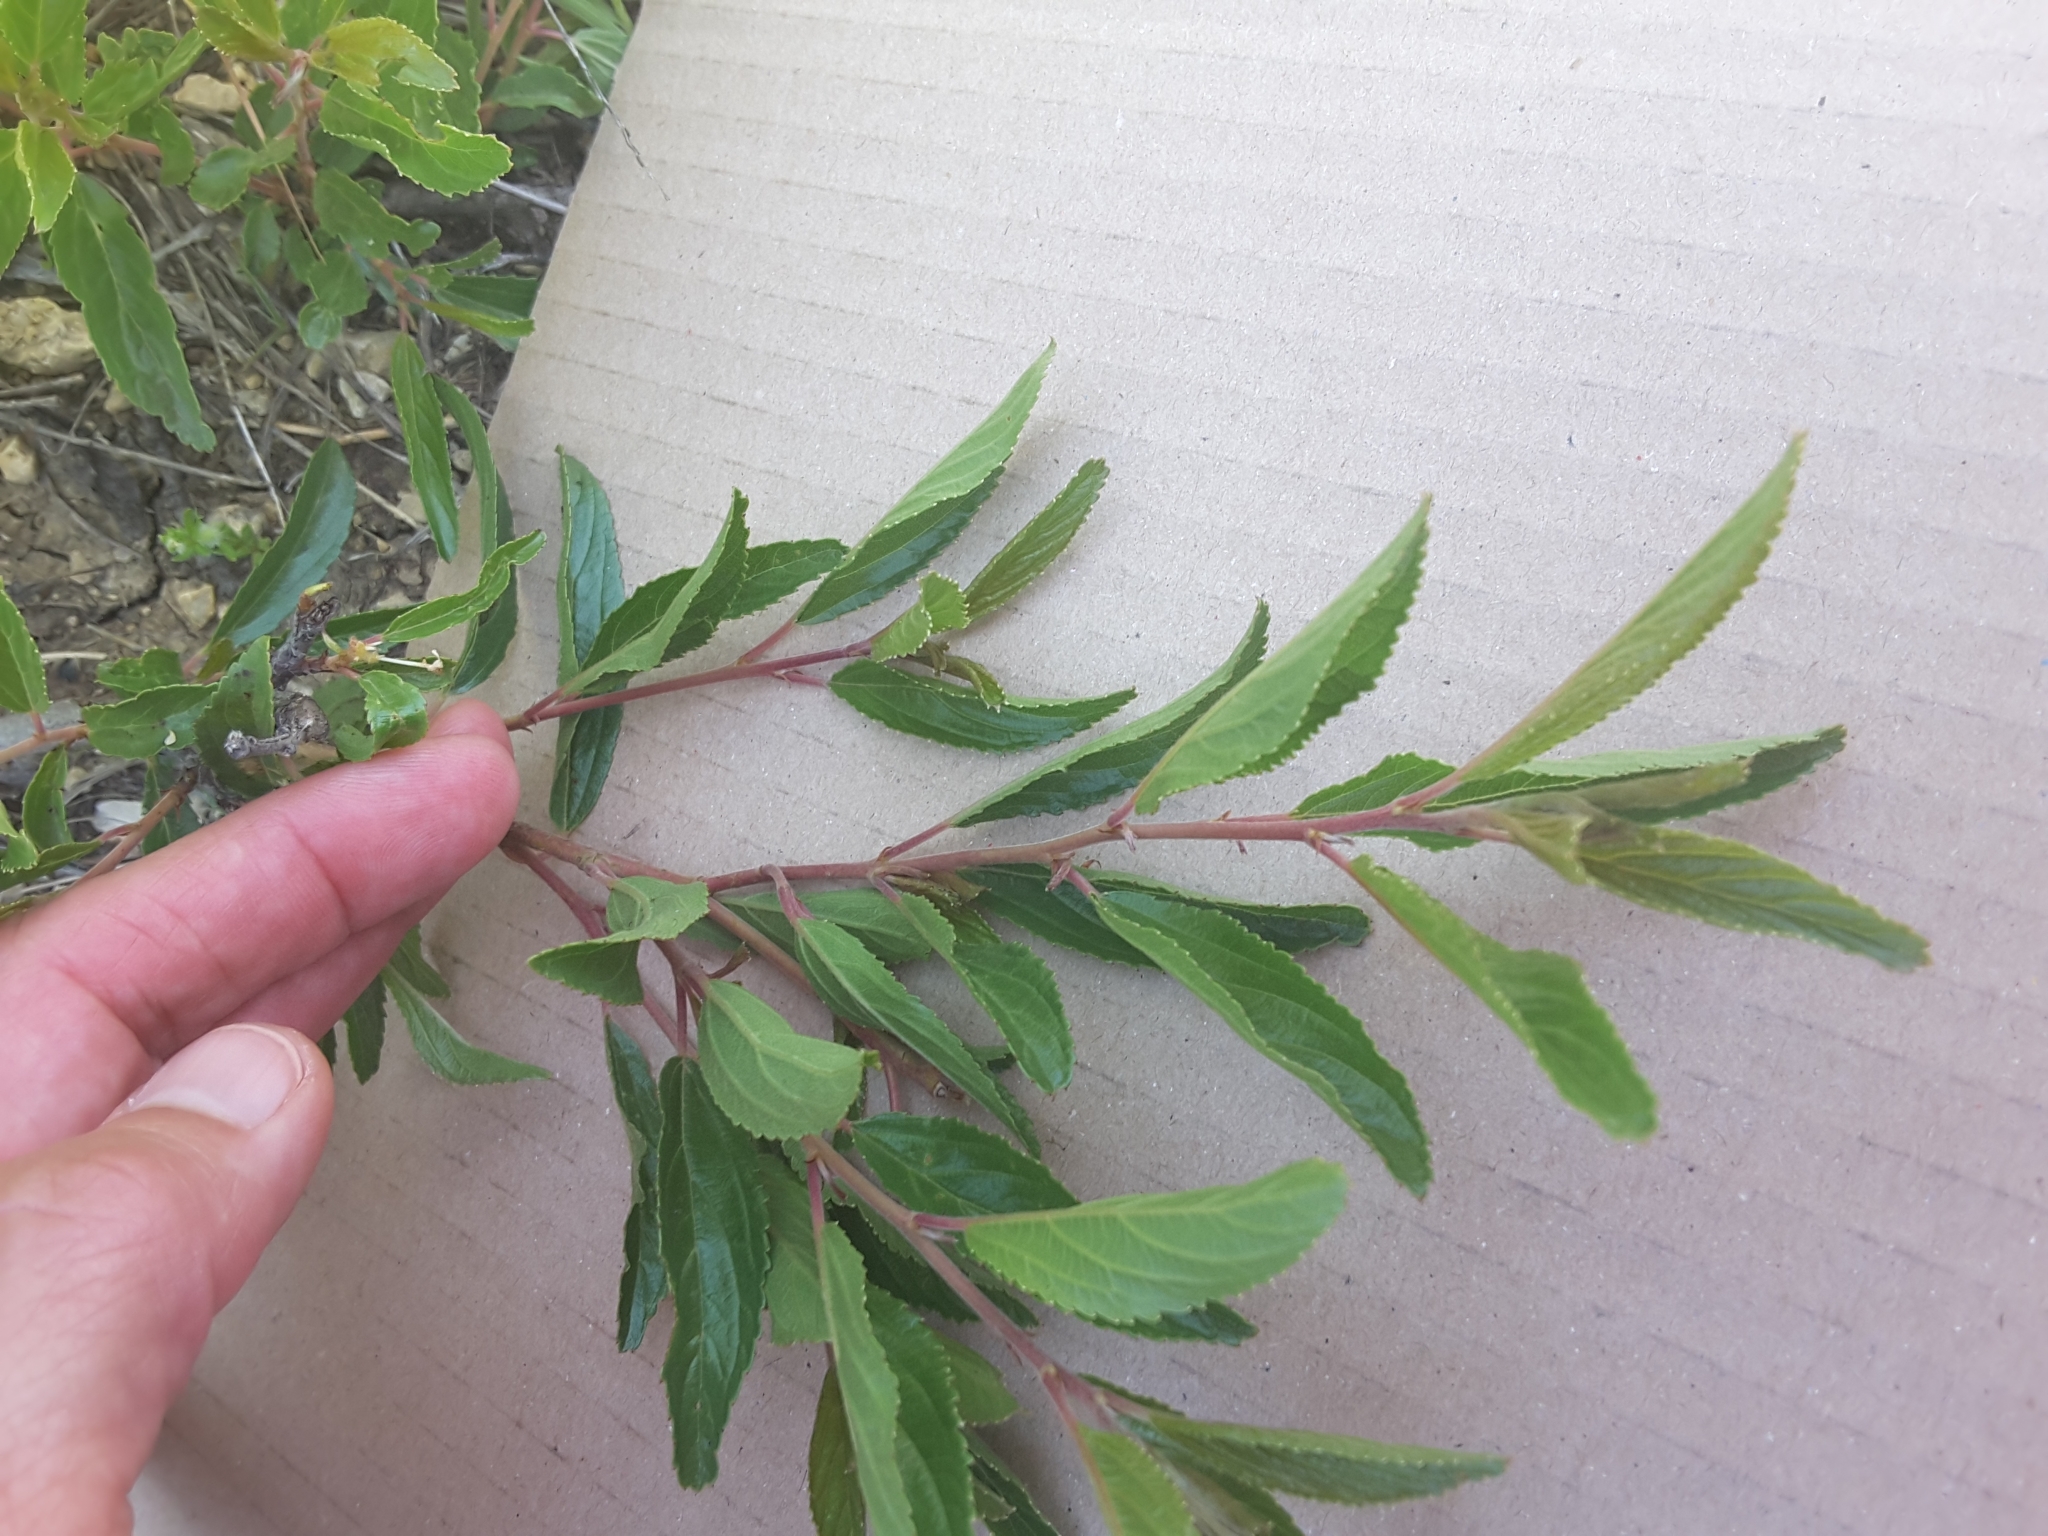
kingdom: Plantae
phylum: Tracheophyta
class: Magnoliopsida
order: Rosales
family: Rhamnaceae
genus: Ceanothus
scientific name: Ceanothus herbaceus
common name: Inland ceanothus
